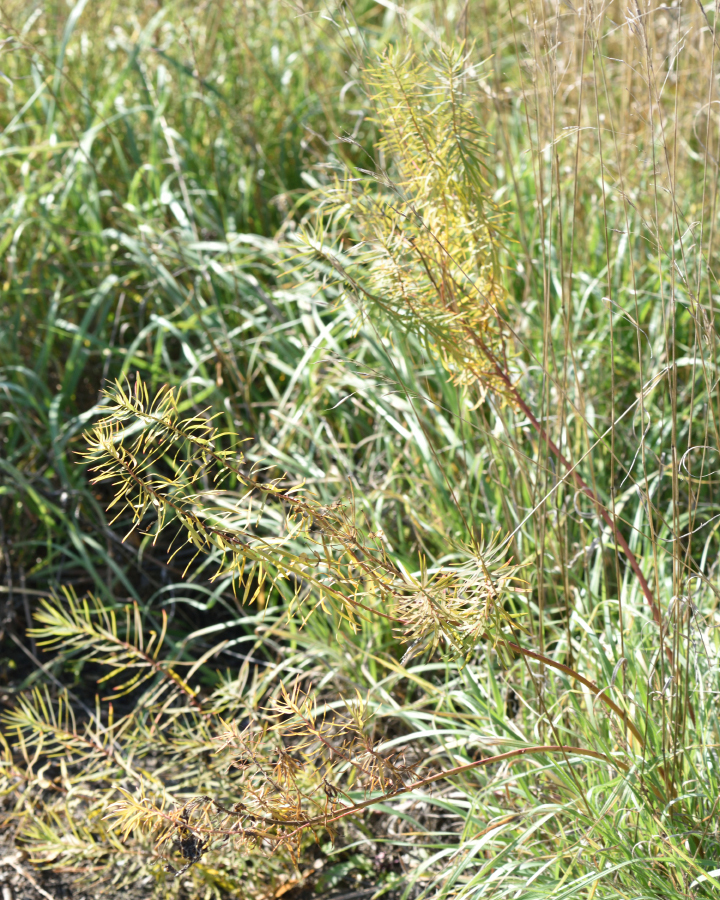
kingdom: Plantae
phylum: Tracheophyta
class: Magnoliopsida
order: Malpighiales
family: Euphorbiaceae
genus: Euphorbia
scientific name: Euphorbia virgata
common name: Leafy spurge
